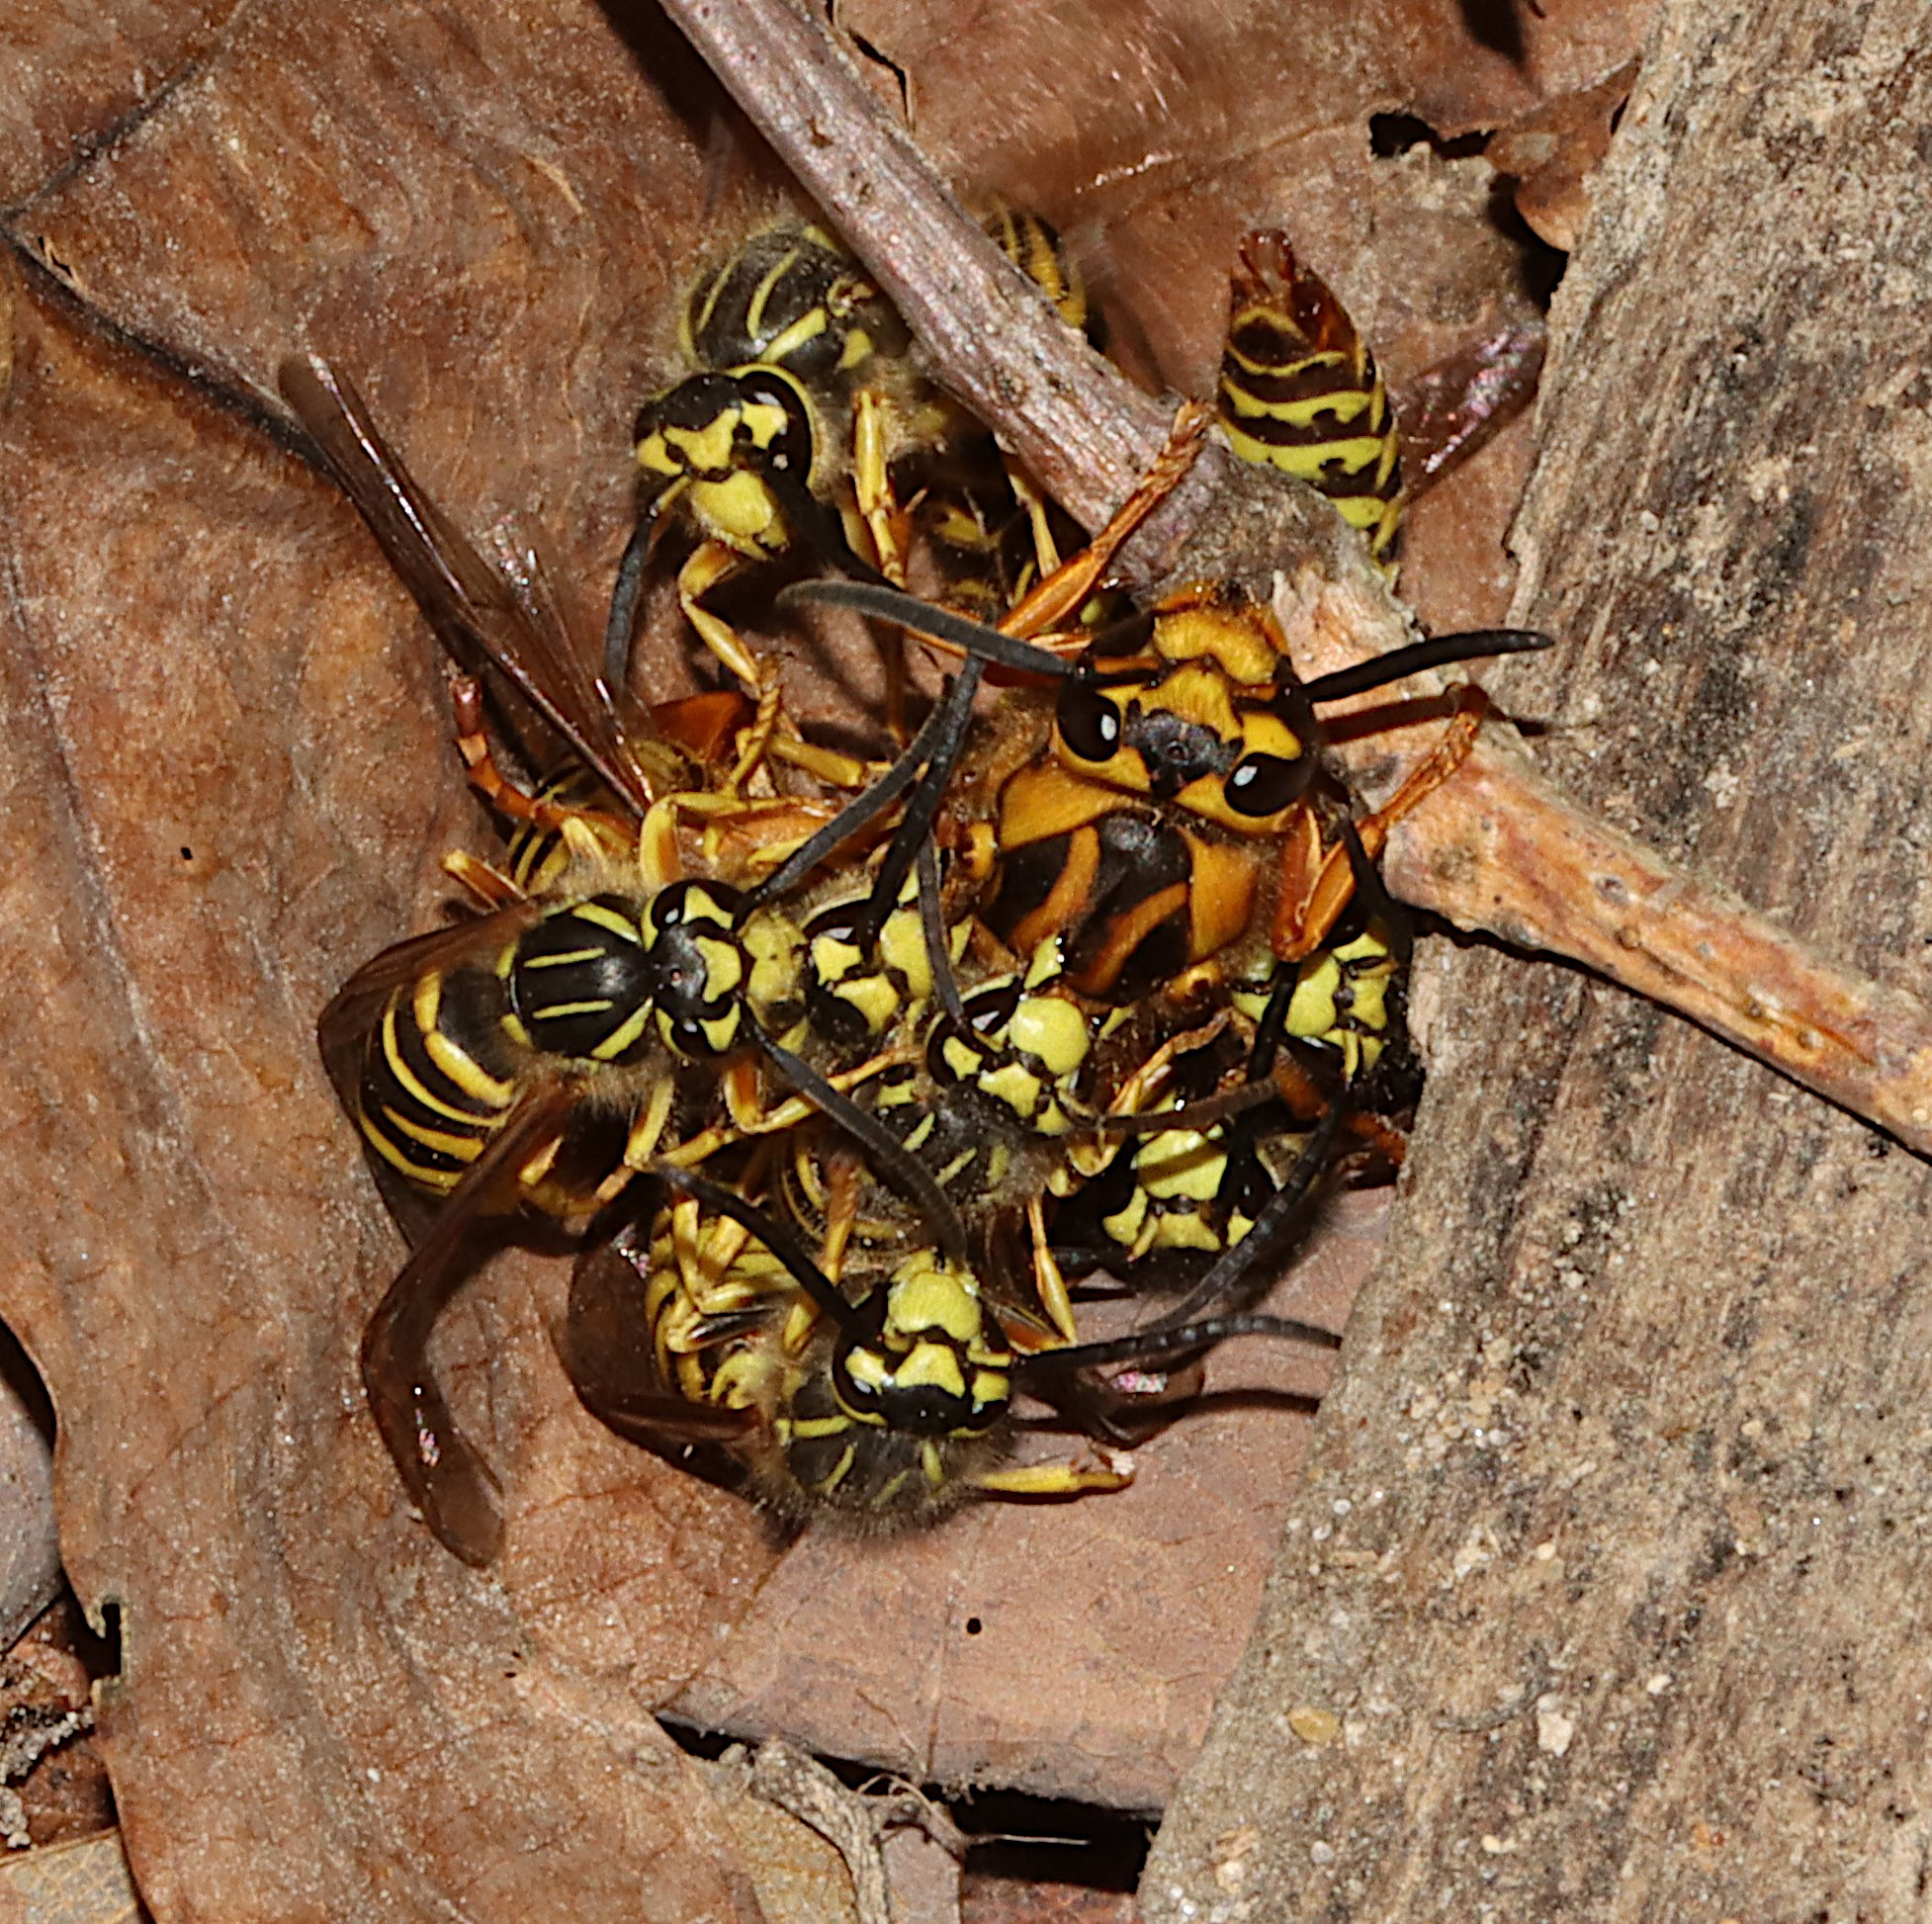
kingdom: Animalia
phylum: Arthropoda
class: Insecta
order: Hymenoptera
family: Vespidae
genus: Vespula
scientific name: Vespula squamosa
